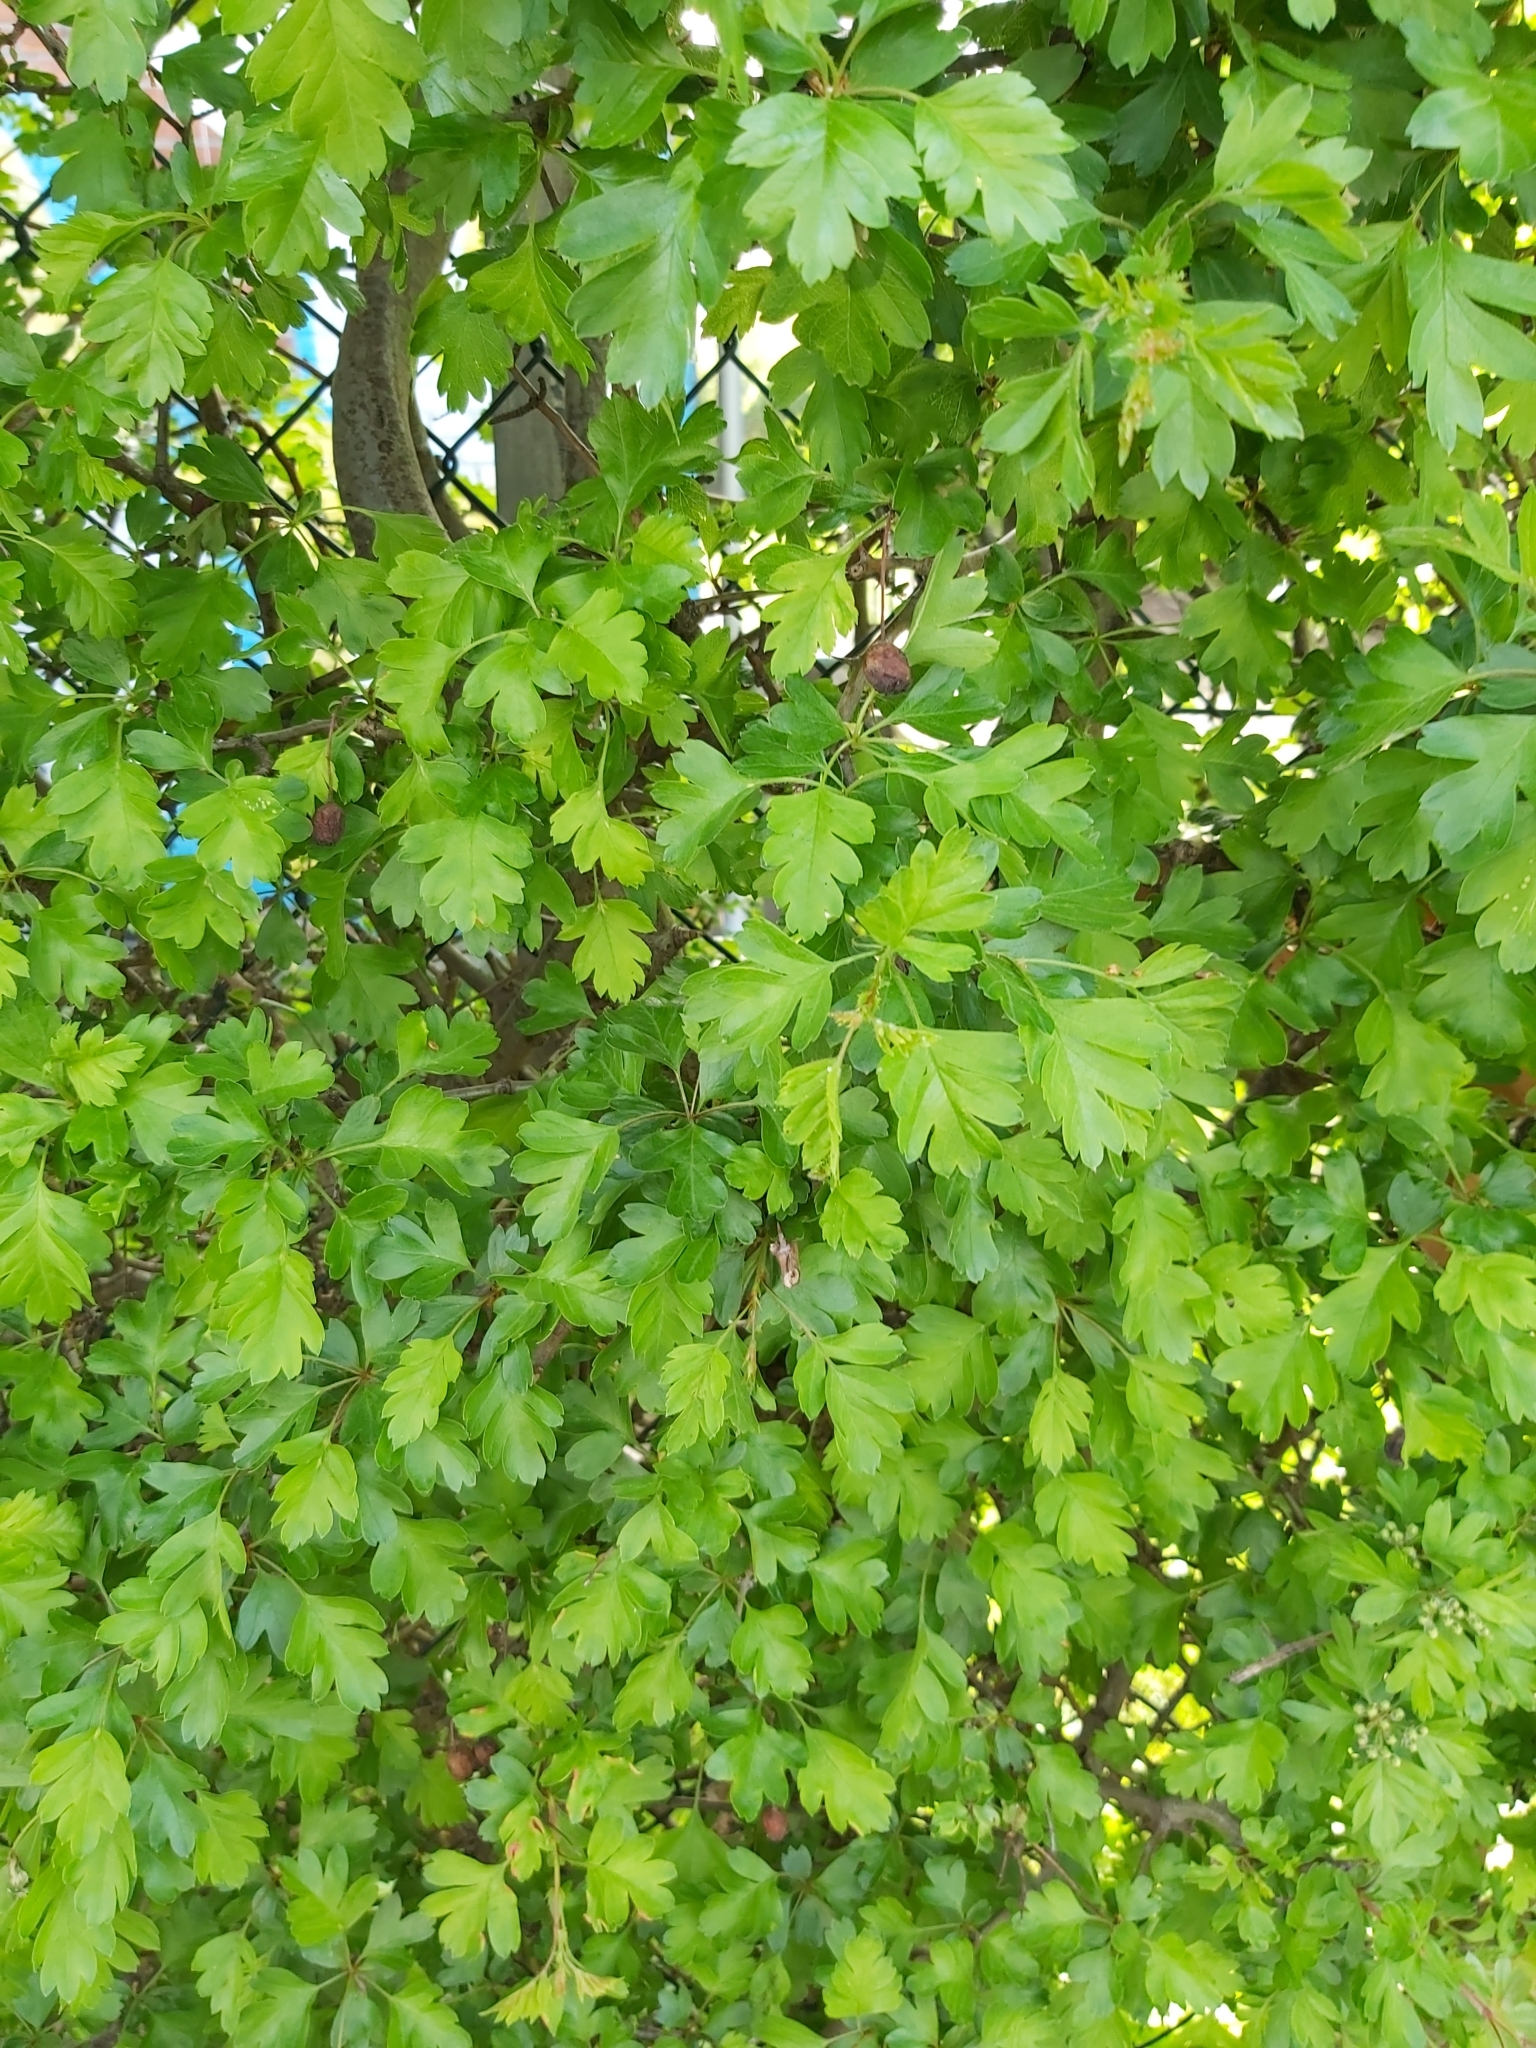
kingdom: Plantae
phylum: Tracheophyta
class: Magnoliopsida
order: Rosales
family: Rosaceae
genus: Crataegus
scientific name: Crataegus monogyna
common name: Hawthorn
